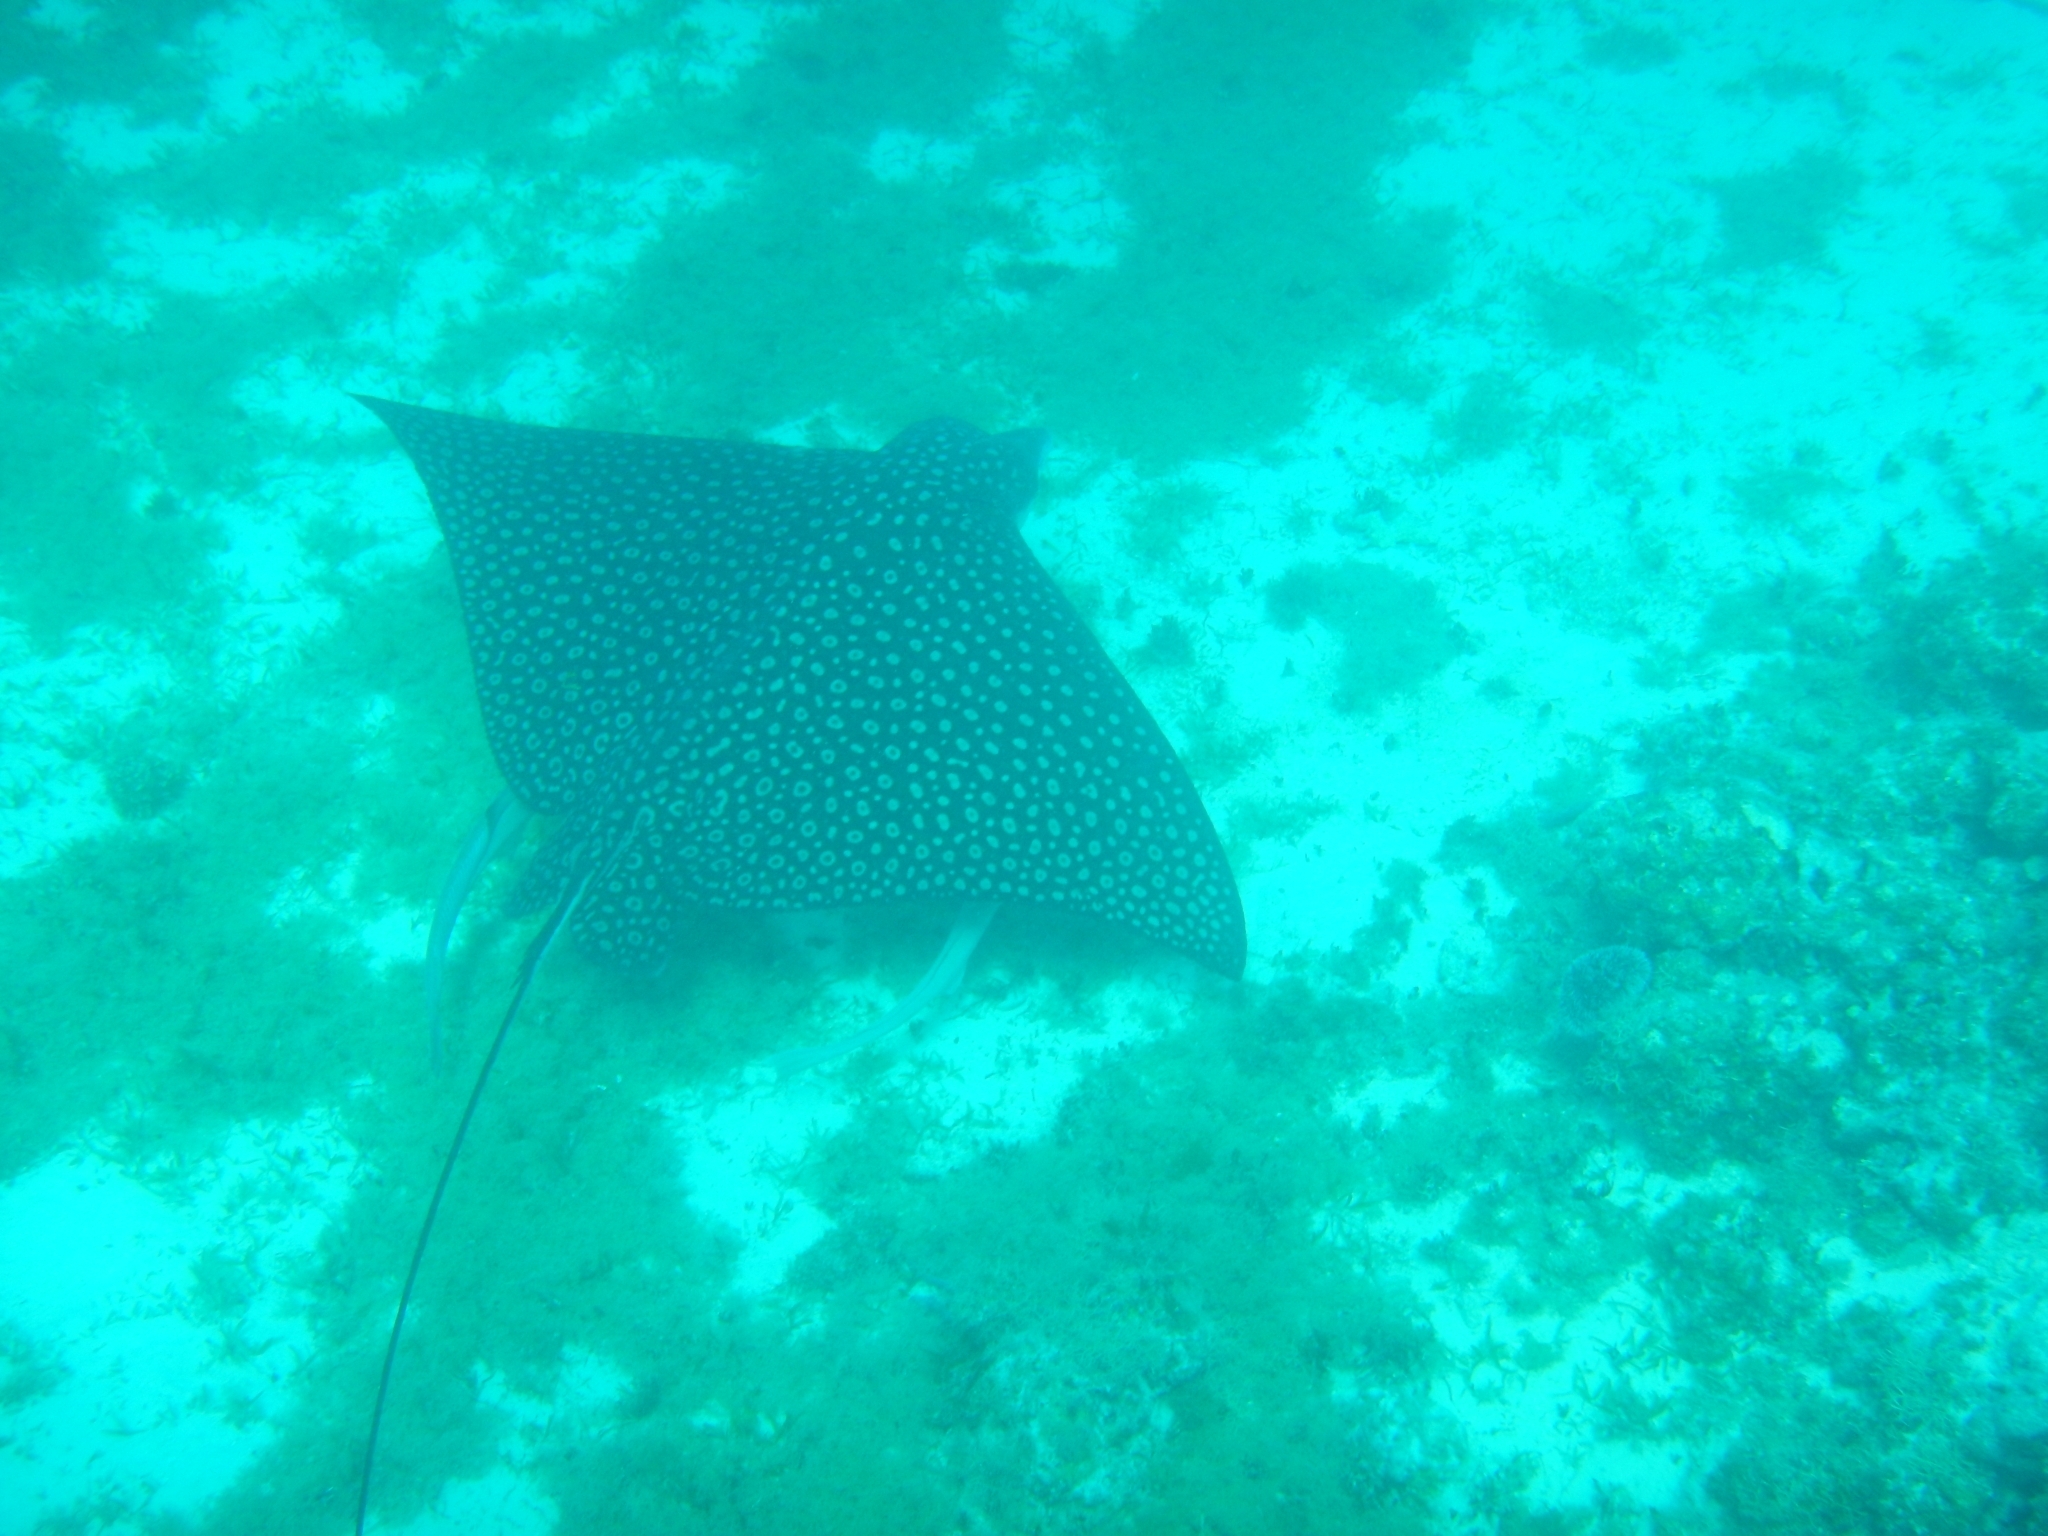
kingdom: Animalia
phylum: Chordata
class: Elasmobranchii
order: Myliobatiformes
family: Myliobatidae
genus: Aetobatus
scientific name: Aetobatus narinari
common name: Spotted eagle ray
